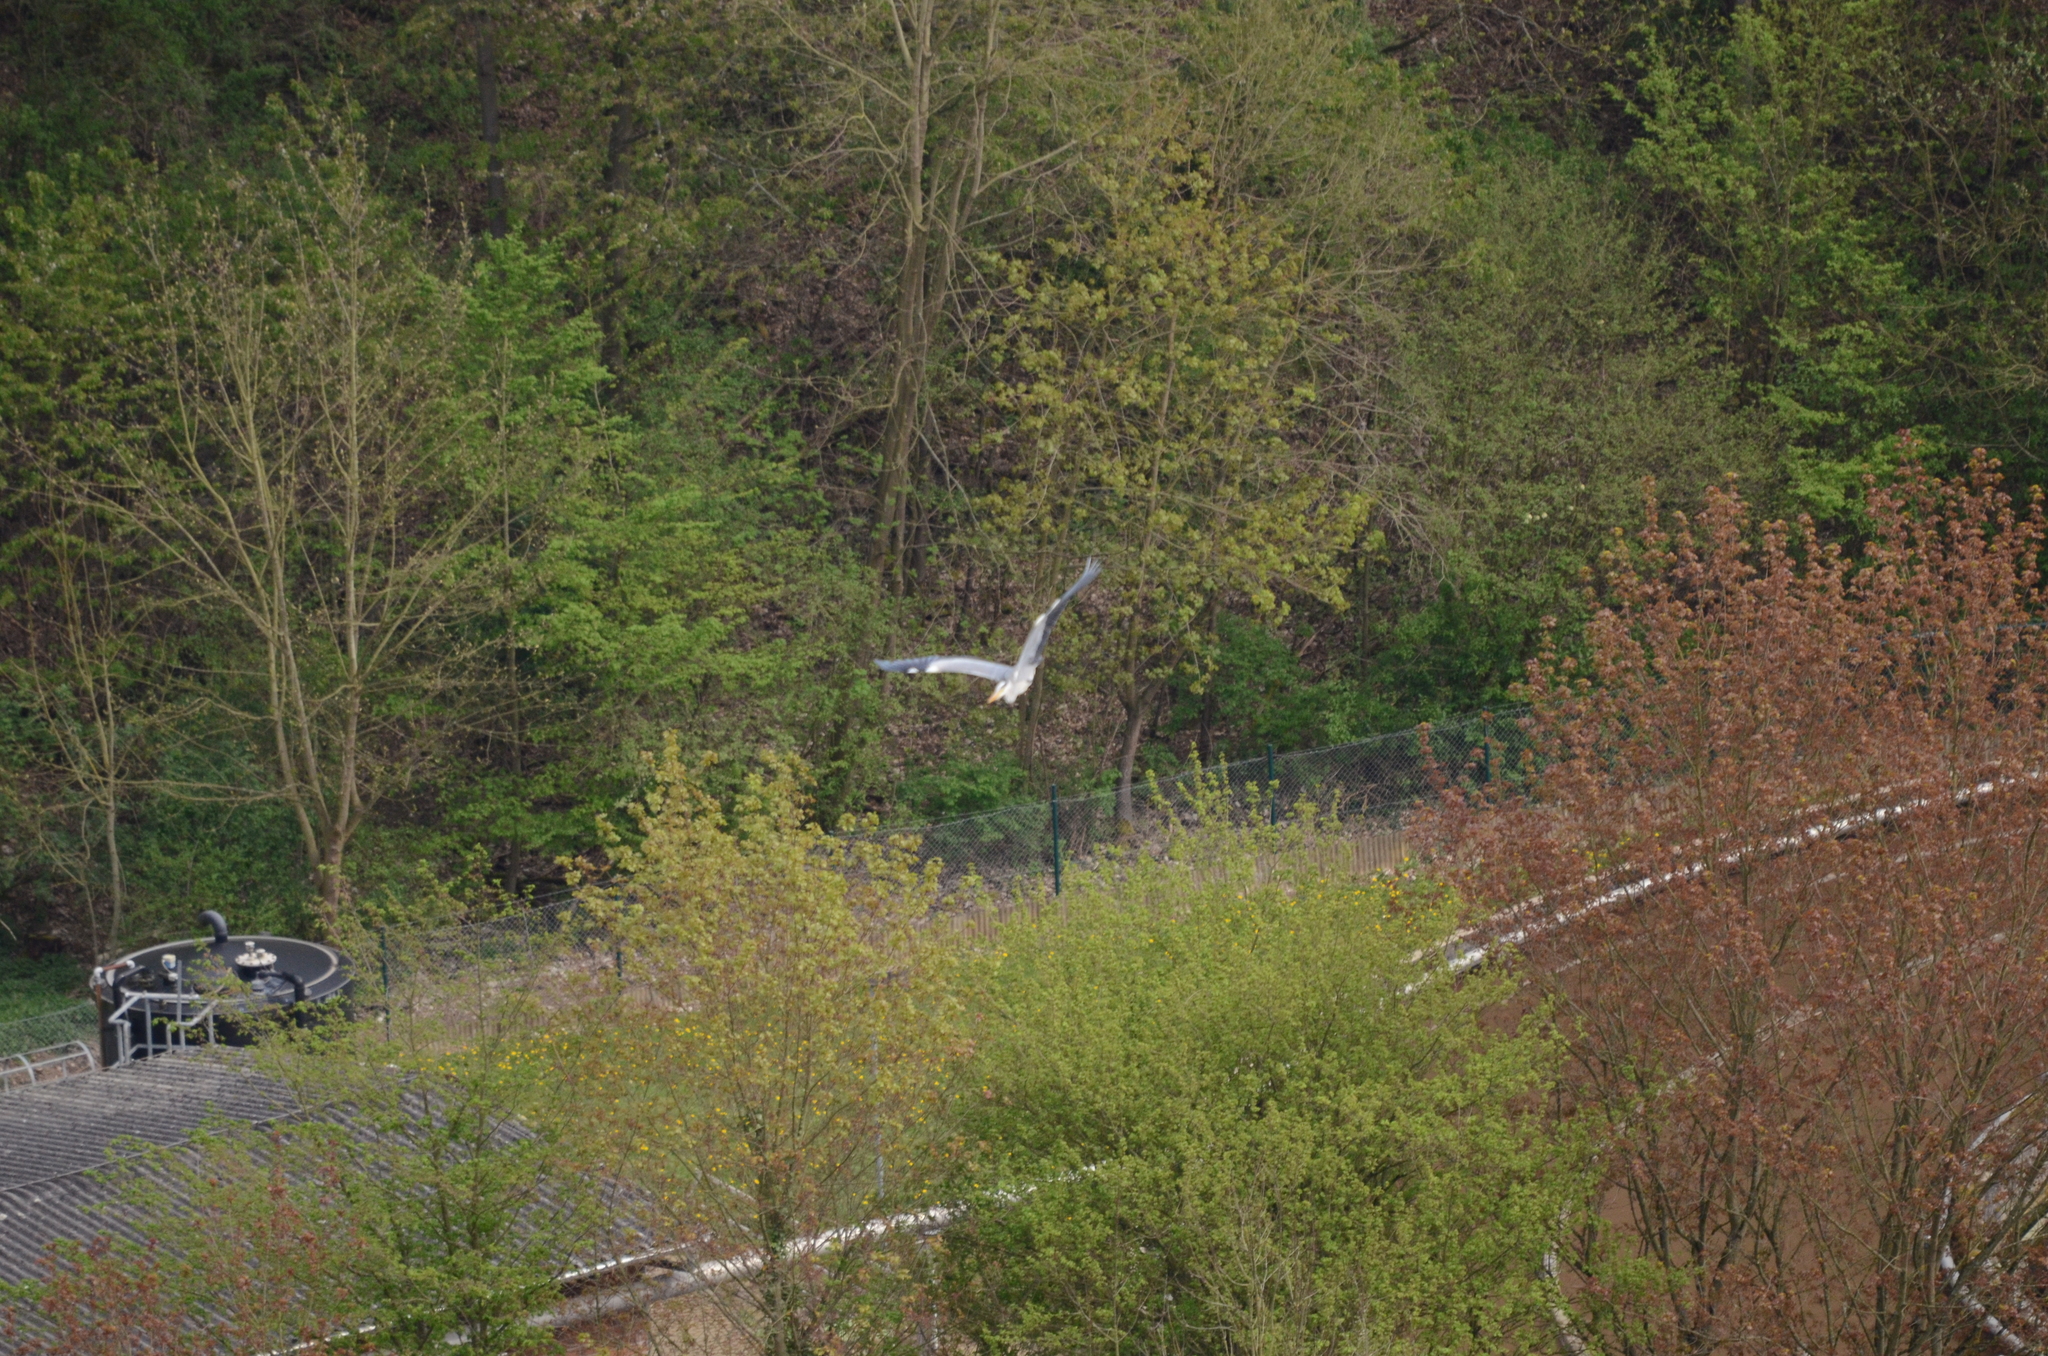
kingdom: Animalia
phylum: Chordata
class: Aves
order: Pelecaniformes
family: Ardeidae
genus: Ardea
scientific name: Ardea cinerea
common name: Grey heron
